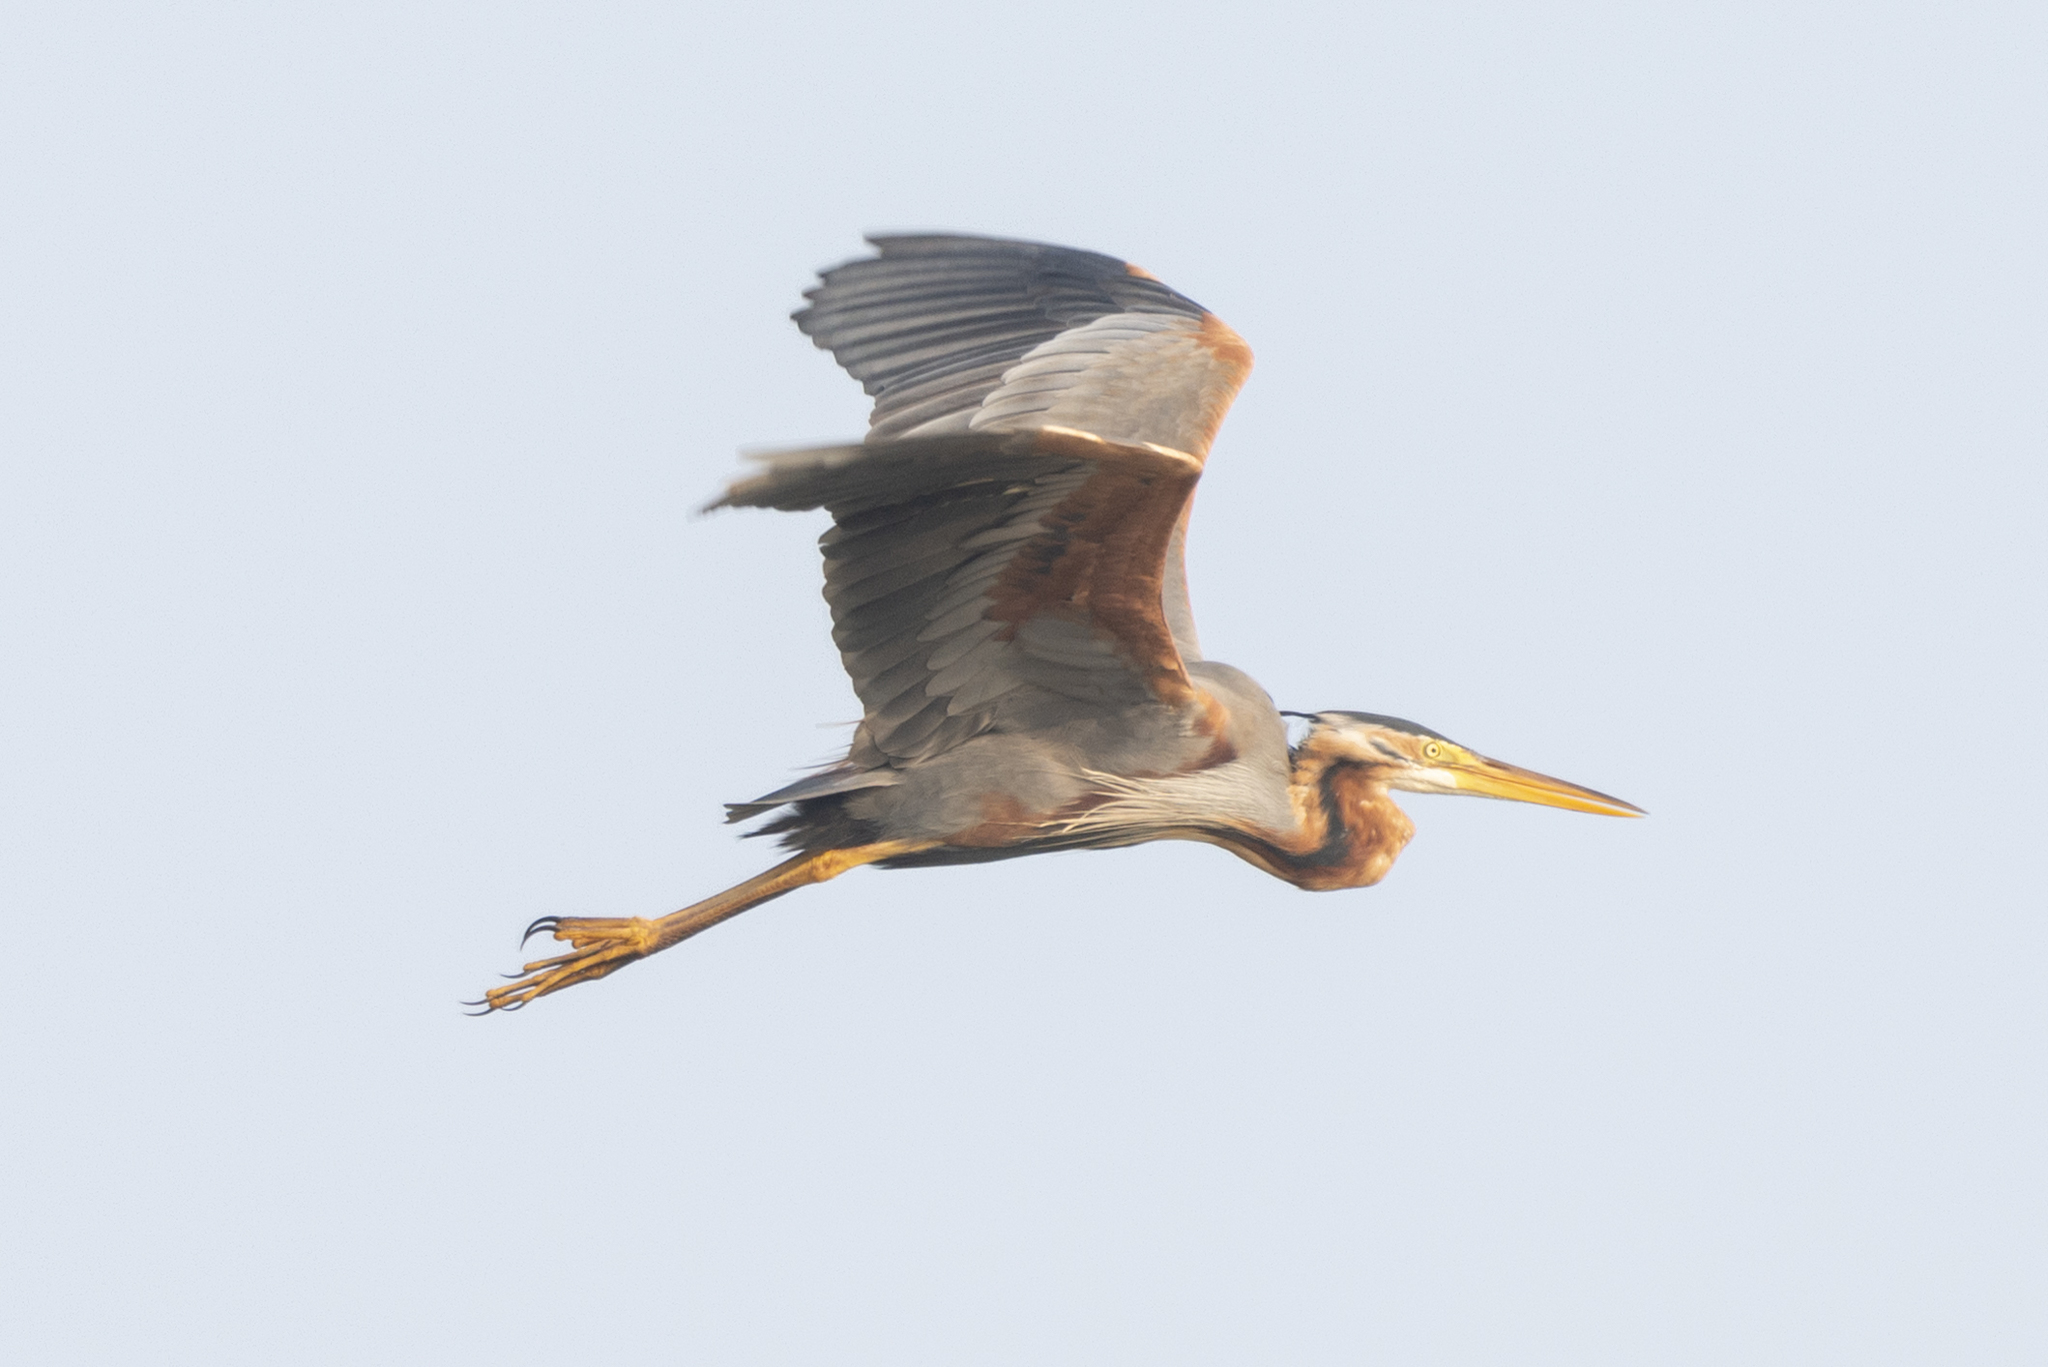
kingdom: Animalia
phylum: Chordata
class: Aves
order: Pelecaniformes
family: Ardeidae
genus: Ardea
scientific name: Ardea purpurea
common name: Purple heron
